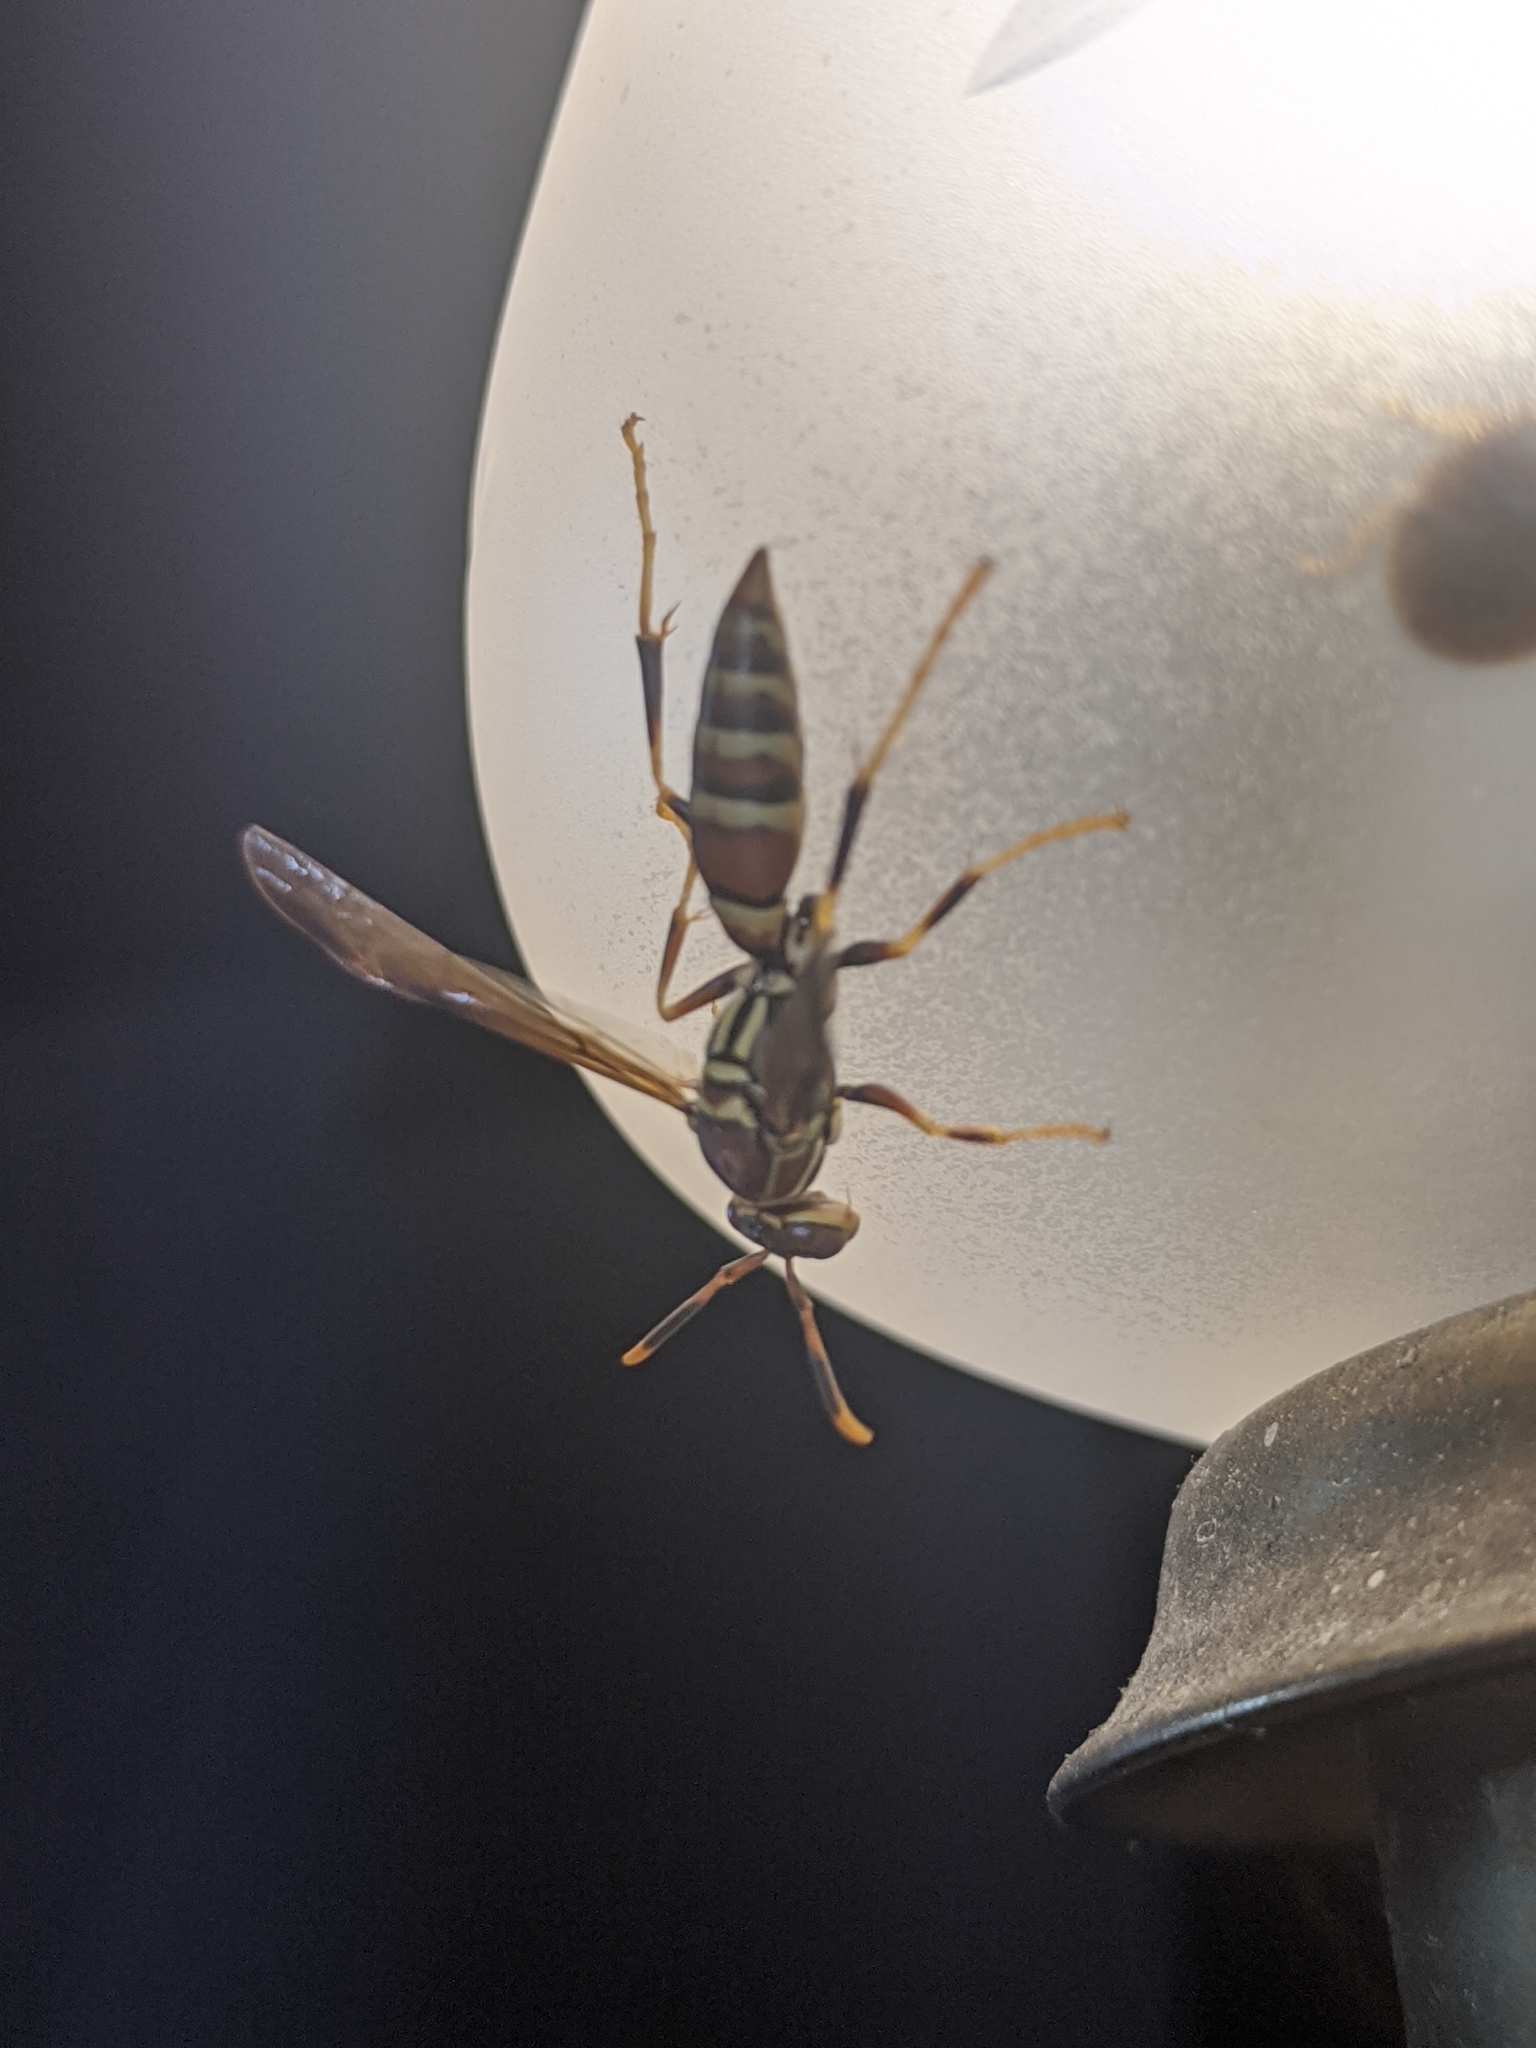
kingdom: Animalia
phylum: Arthropoda
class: Insecta
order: Hymenoptera
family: Eumenidae
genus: Polistes
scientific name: Polistes exclamans
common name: Paper wasp
